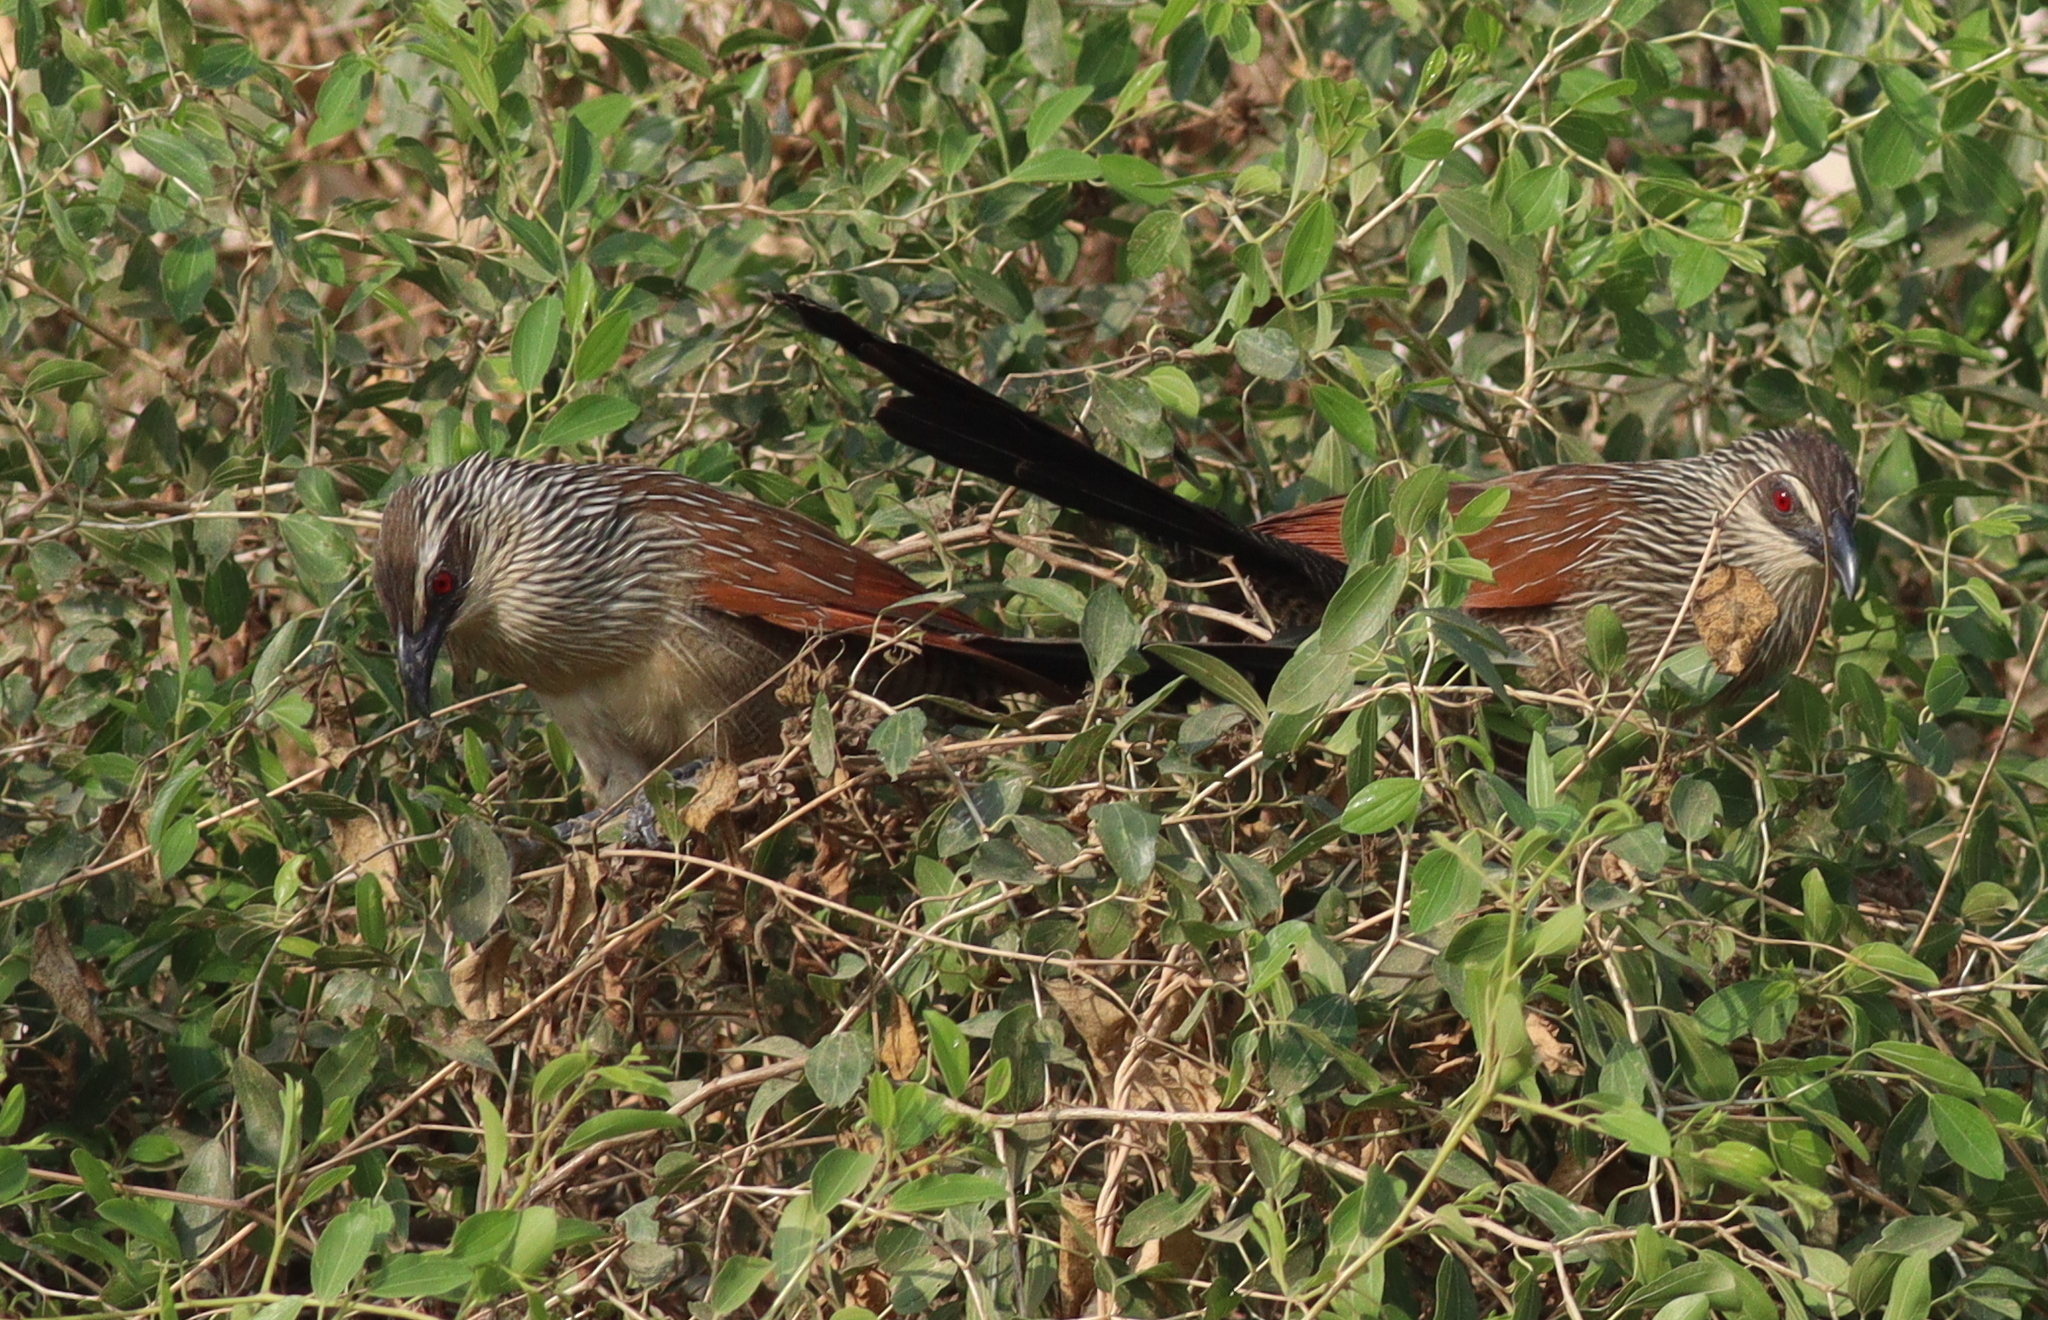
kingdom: Animalia
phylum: Chordata
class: Aves
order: Cuculiformes
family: Cuculidae
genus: Centropus
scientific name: Centropus superciliosus
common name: White-browed coucal
